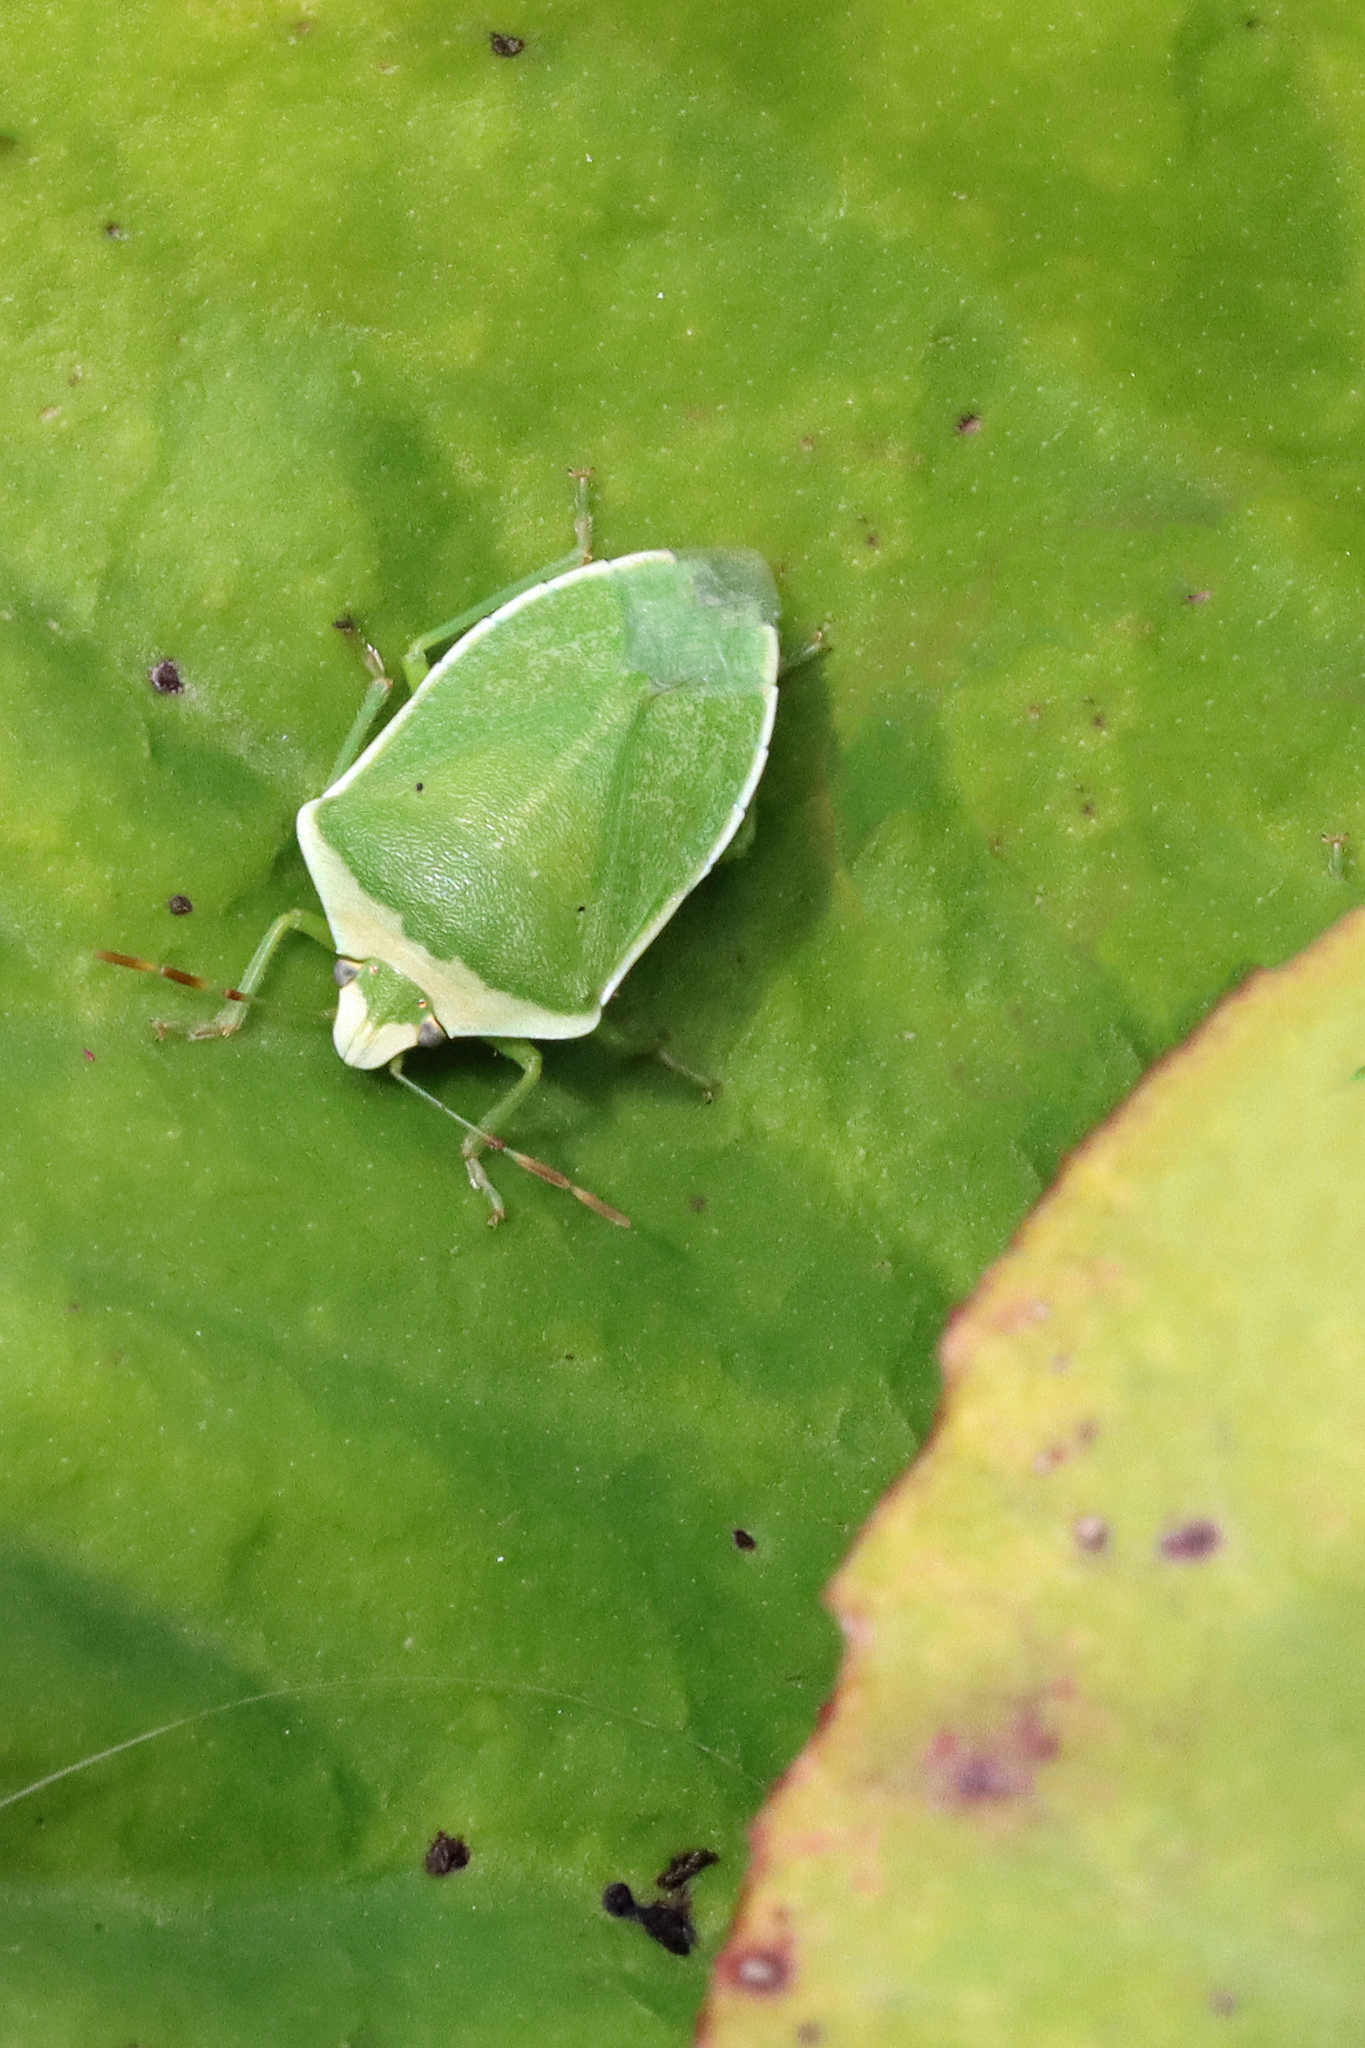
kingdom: Animalia
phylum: Arthropoda
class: Insecta
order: Hemiptera
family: Pentatomidae
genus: Nezara
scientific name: Nezara viridula
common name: Southern green stink bug
